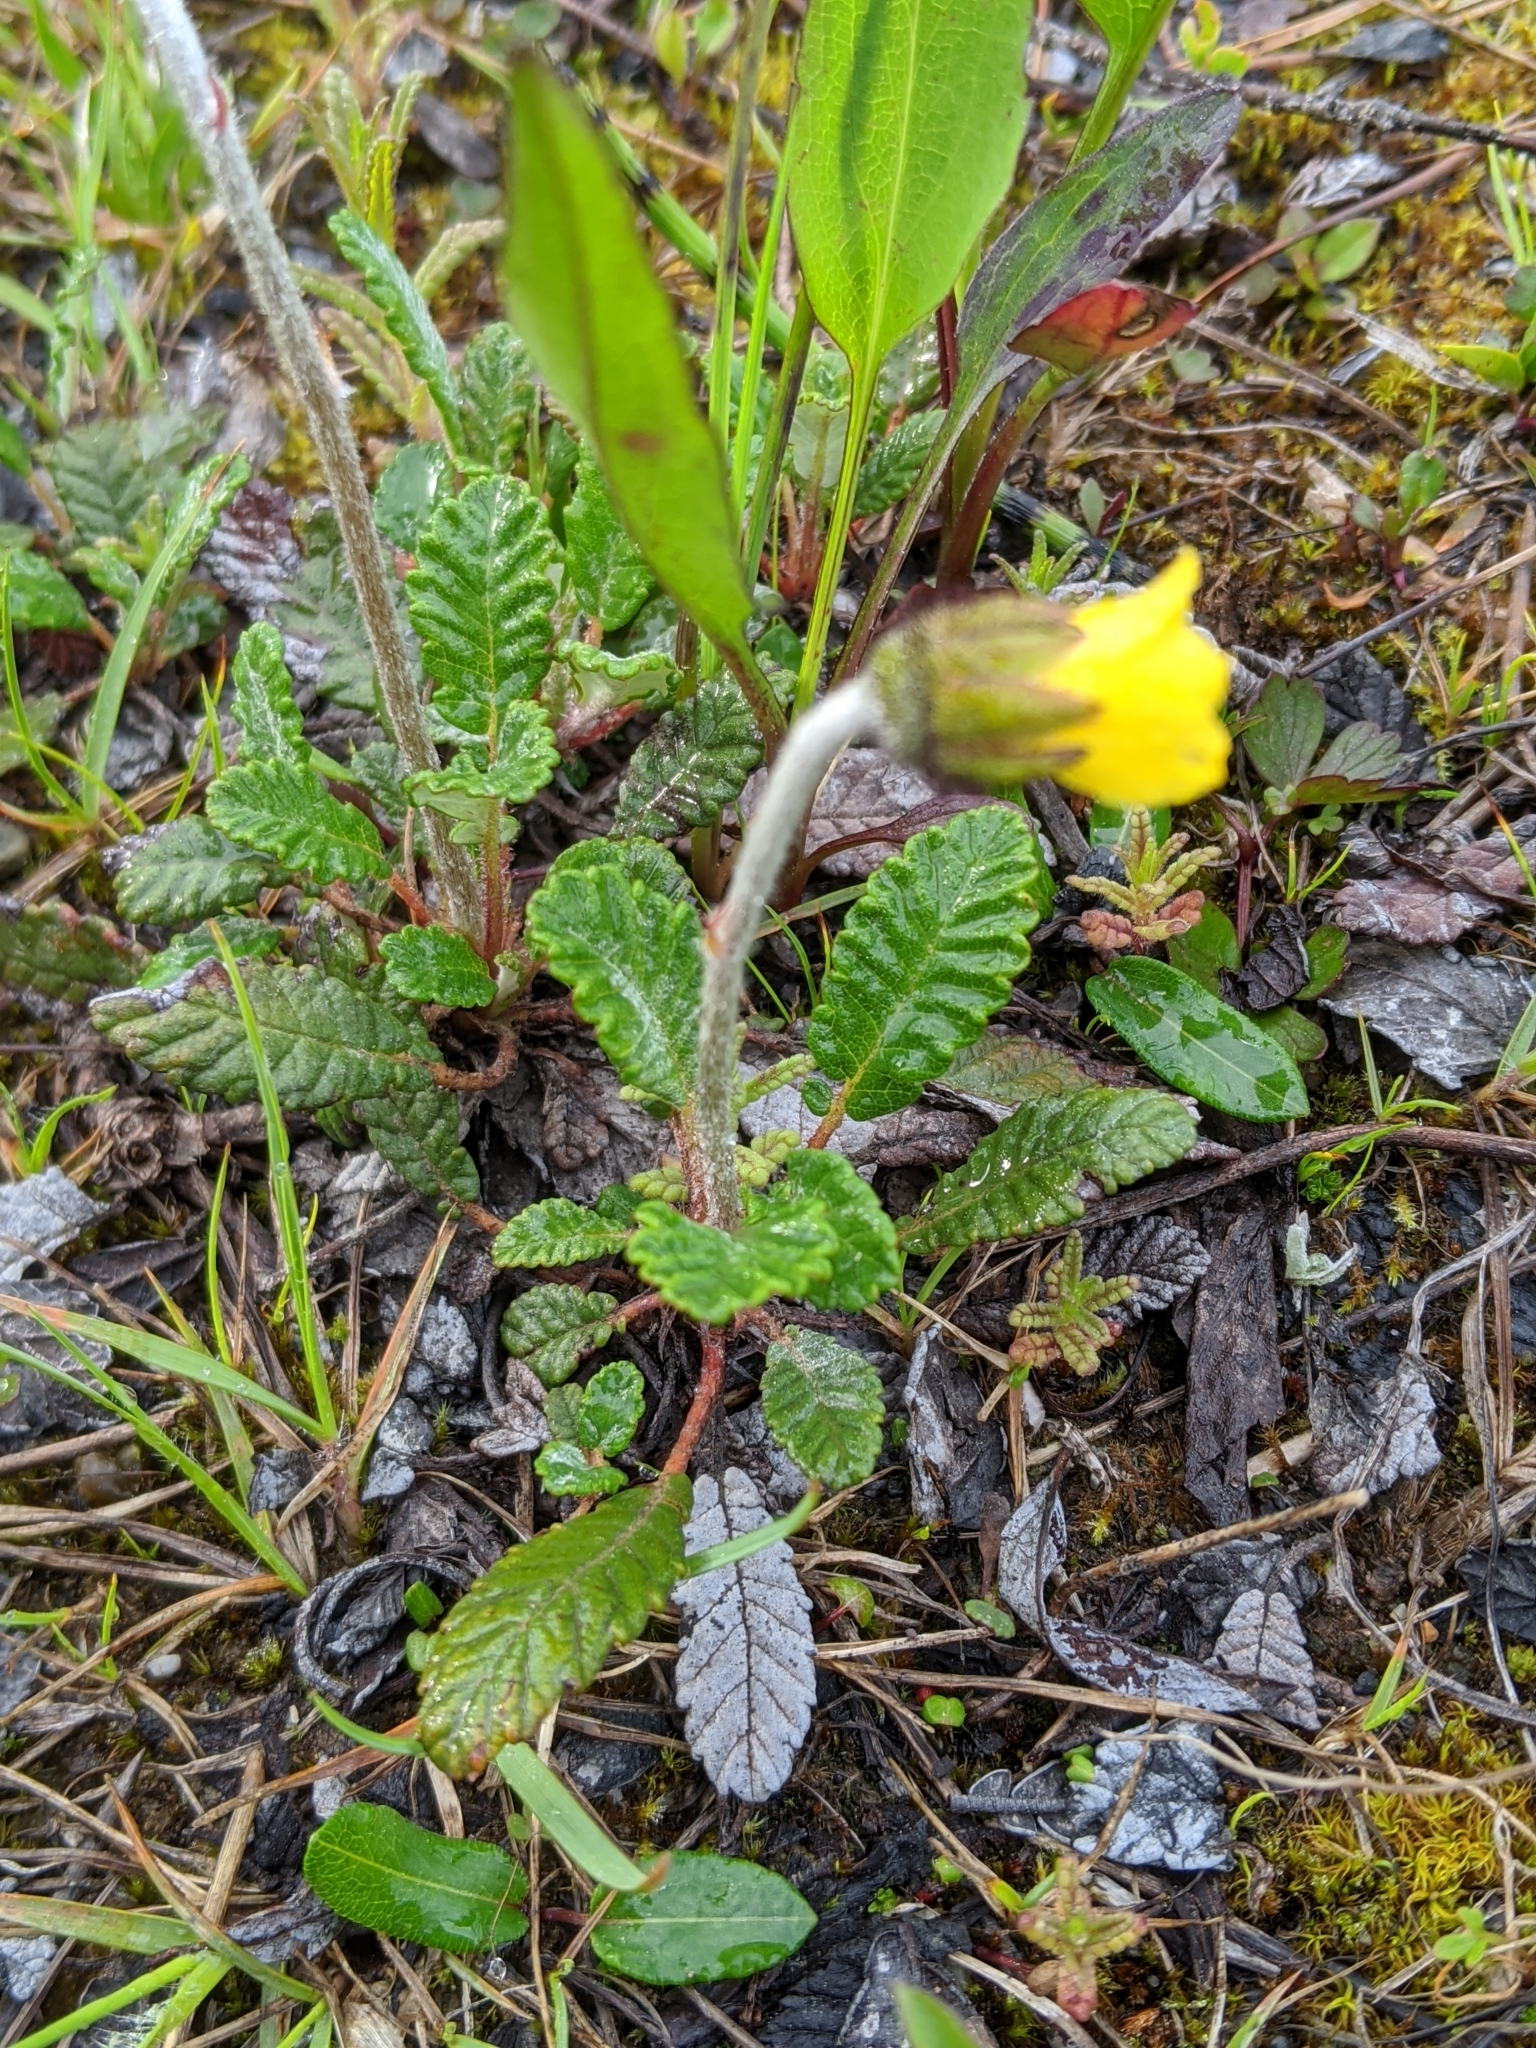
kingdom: Plantae
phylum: Tracheophyta
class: Magnoliopsida
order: Rosales
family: Rosaceae
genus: Dryas
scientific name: Dryas drummondii
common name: Drummond's dryad
